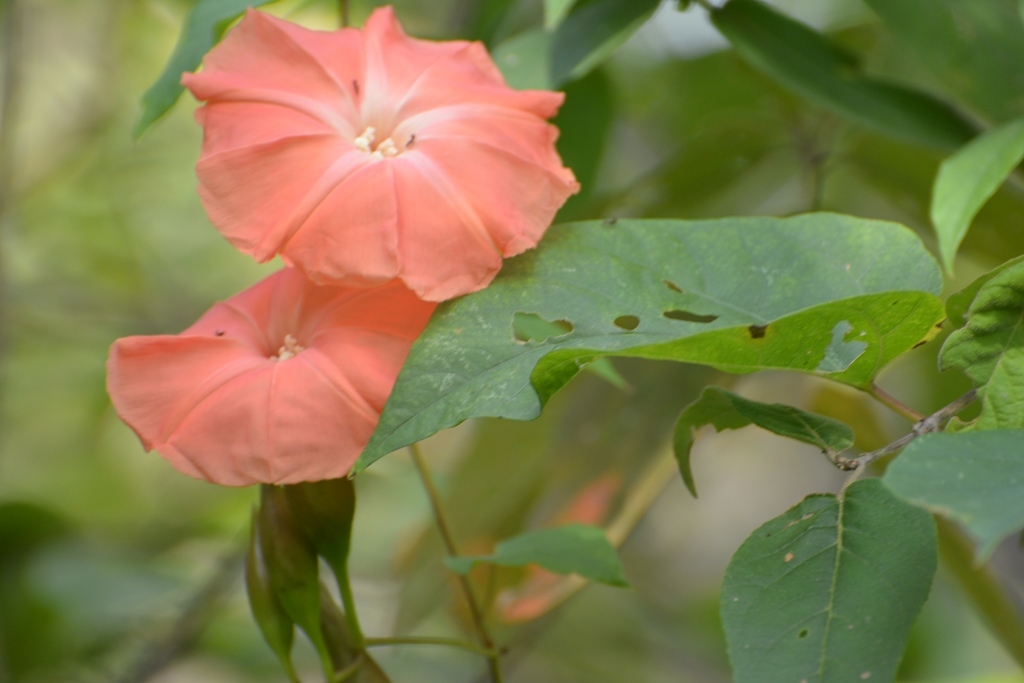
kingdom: Plantae
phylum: Tracheophyta
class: Magnoliopsida
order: Solanales
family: Convolvulaceae
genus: Operculina
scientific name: Operculina pteripes
